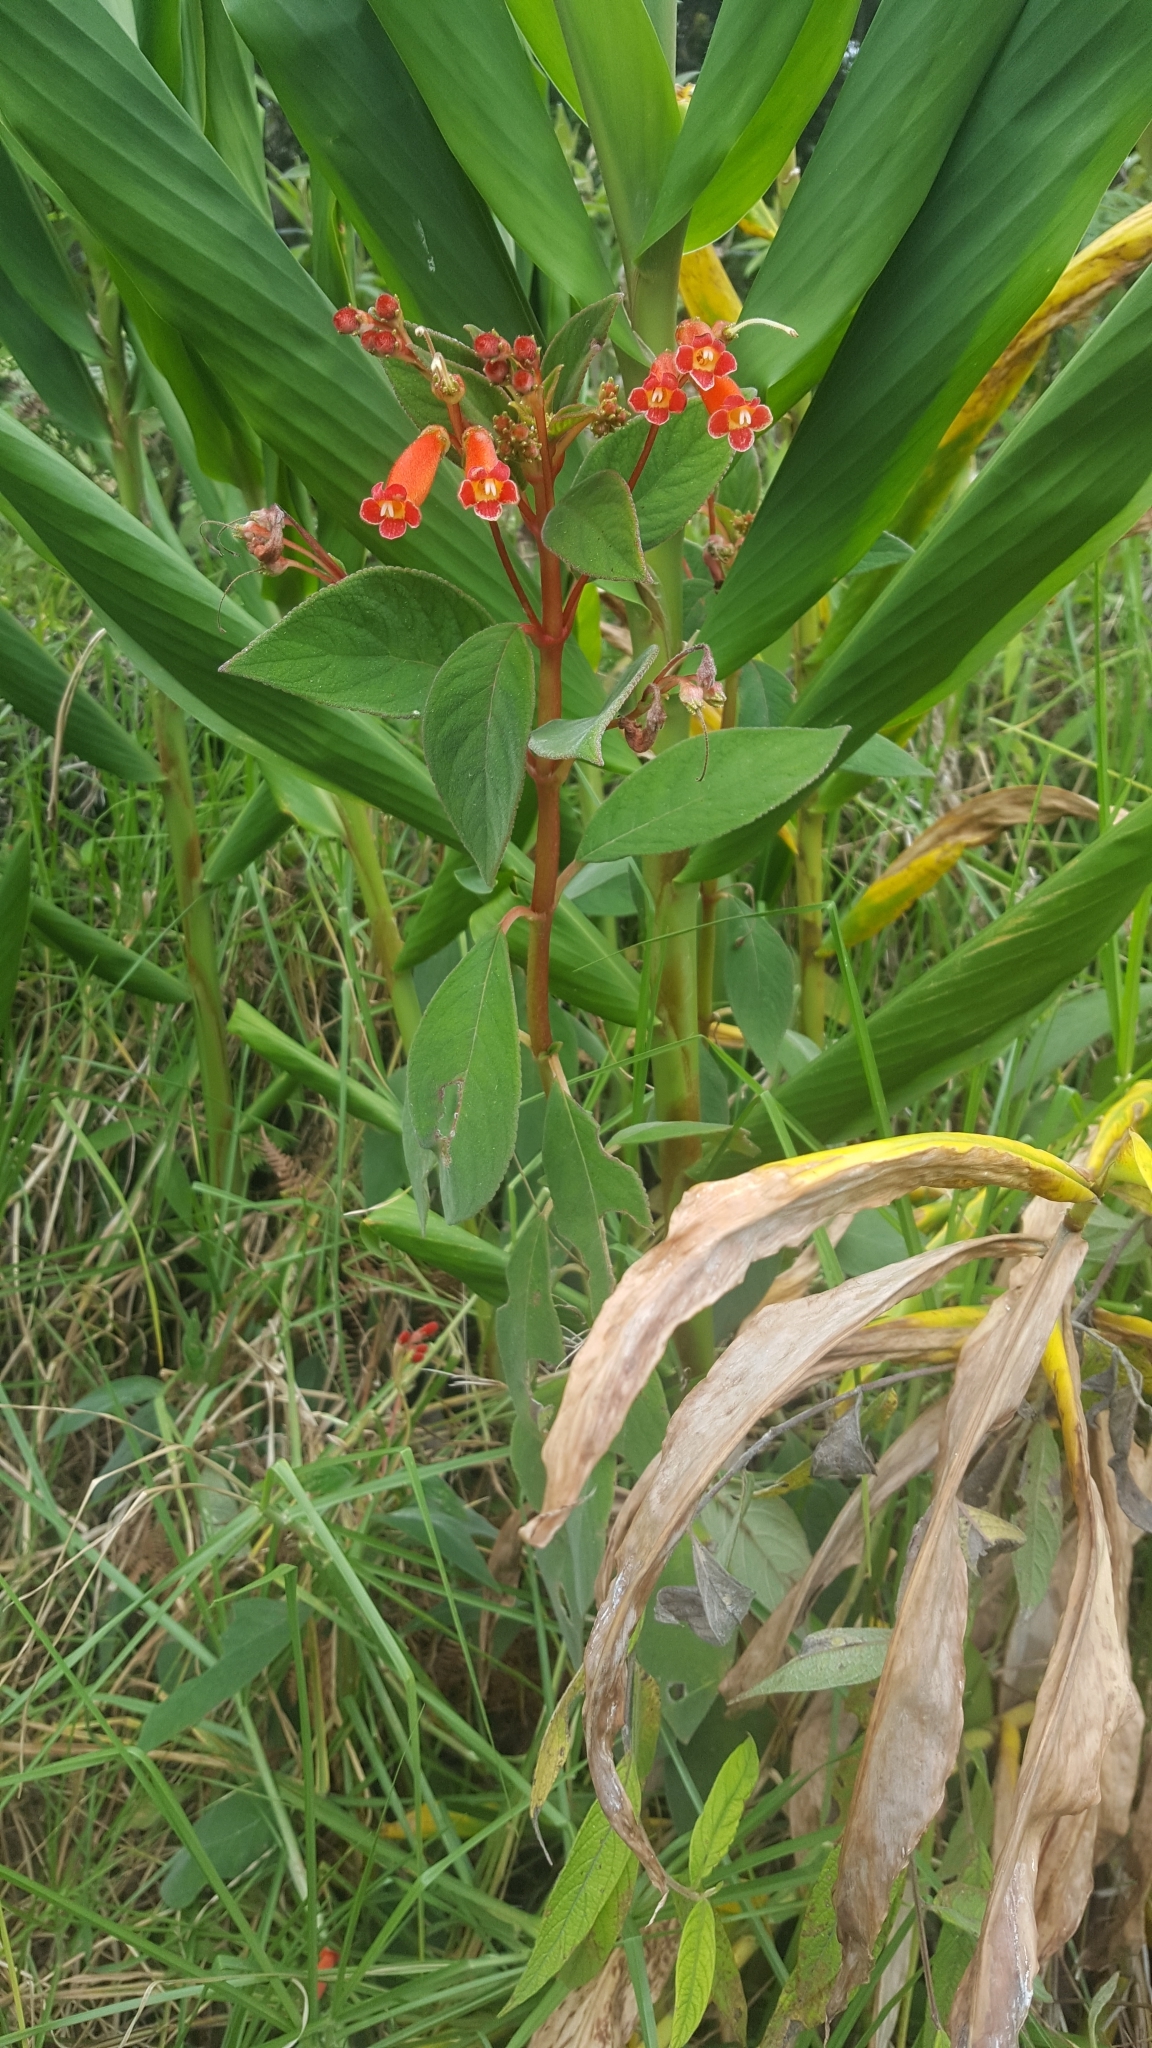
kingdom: Plantae
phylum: Tracheophyta
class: Magnoliopsida
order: Lamiales
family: Gesneriaceae
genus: Kohleria
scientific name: Kohleria trianae
